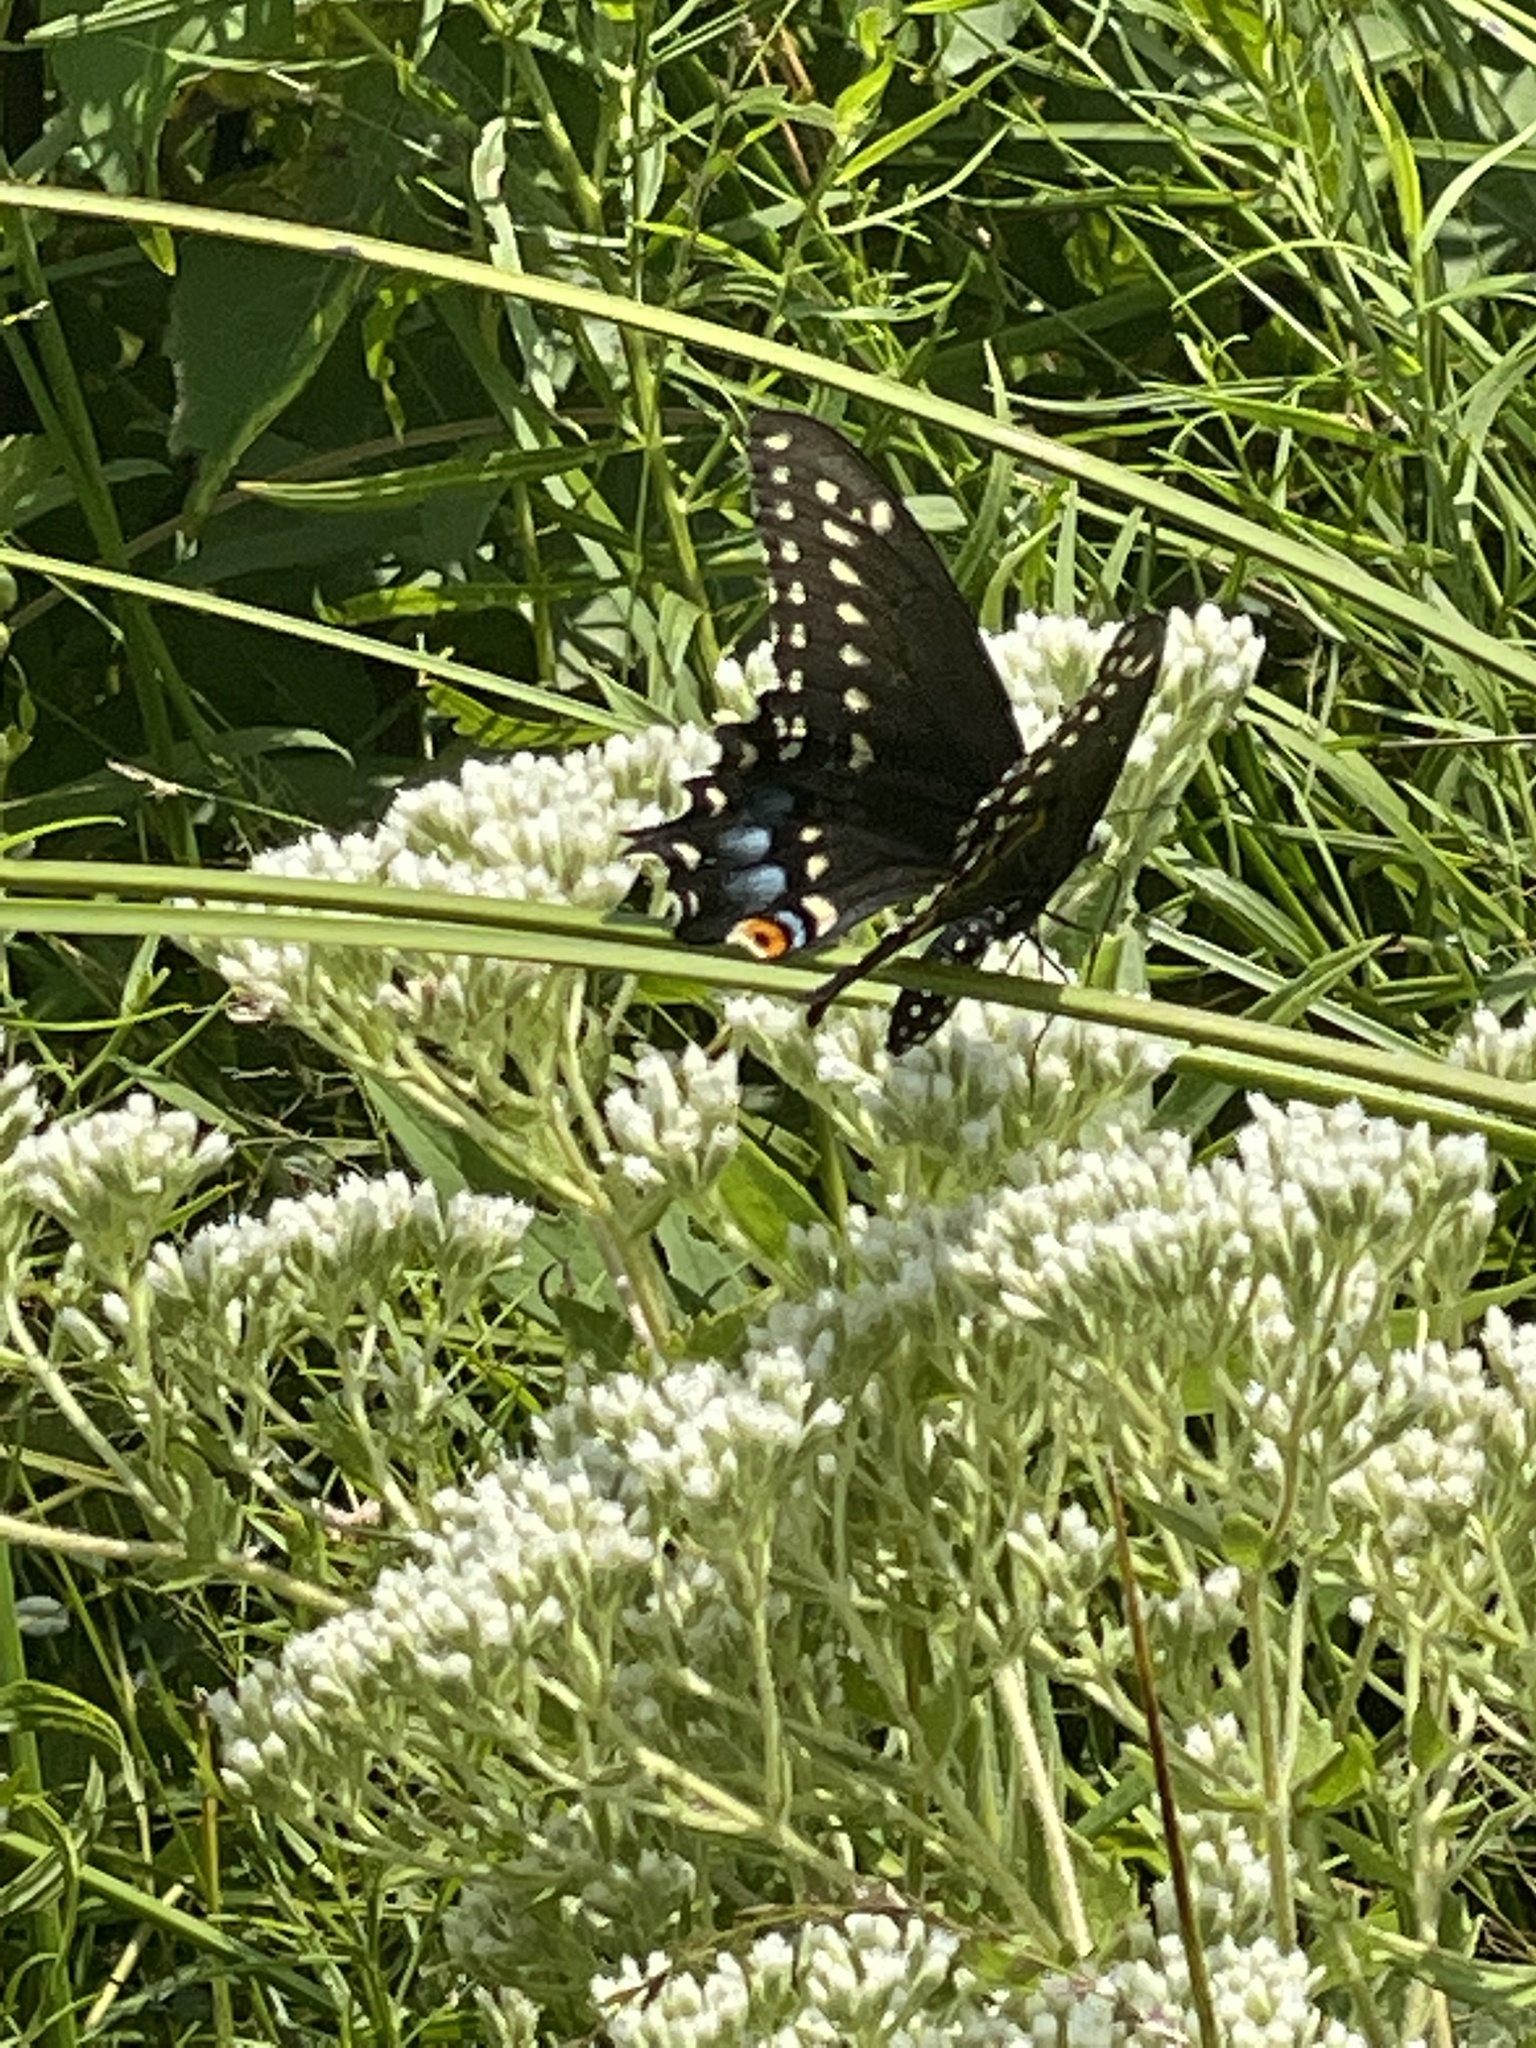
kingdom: Animalia
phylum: Arthropoda
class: Insecta
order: Lepidoptera
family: Papilionidae
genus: Papilio
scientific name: Papilio polyxenes
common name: Black swallowtail
